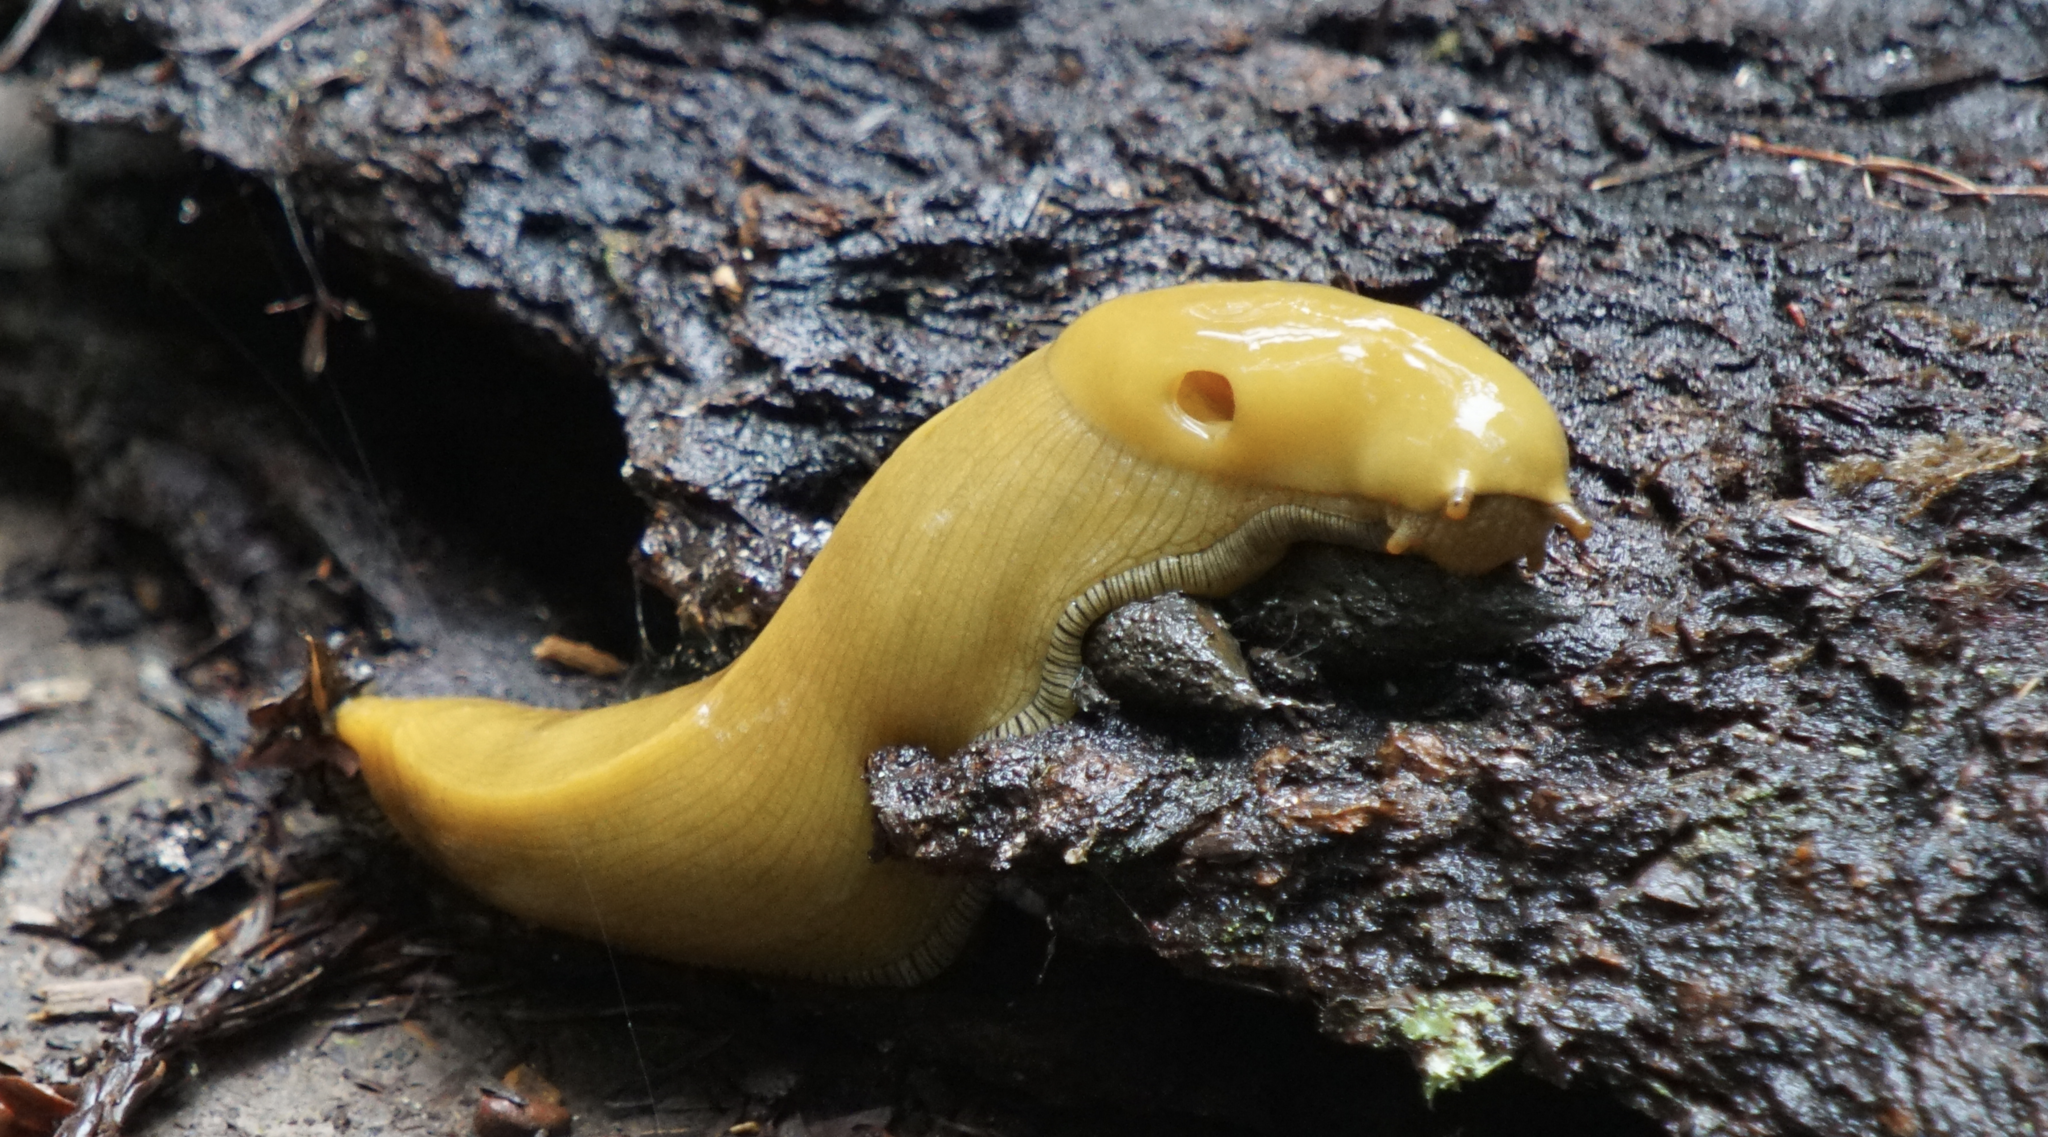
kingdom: Animalia
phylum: Mollusca
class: Gastropoda
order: Stylommatophora
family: Ariolimacidae
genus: Ariolimax
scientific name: Ariolimax buttoni
